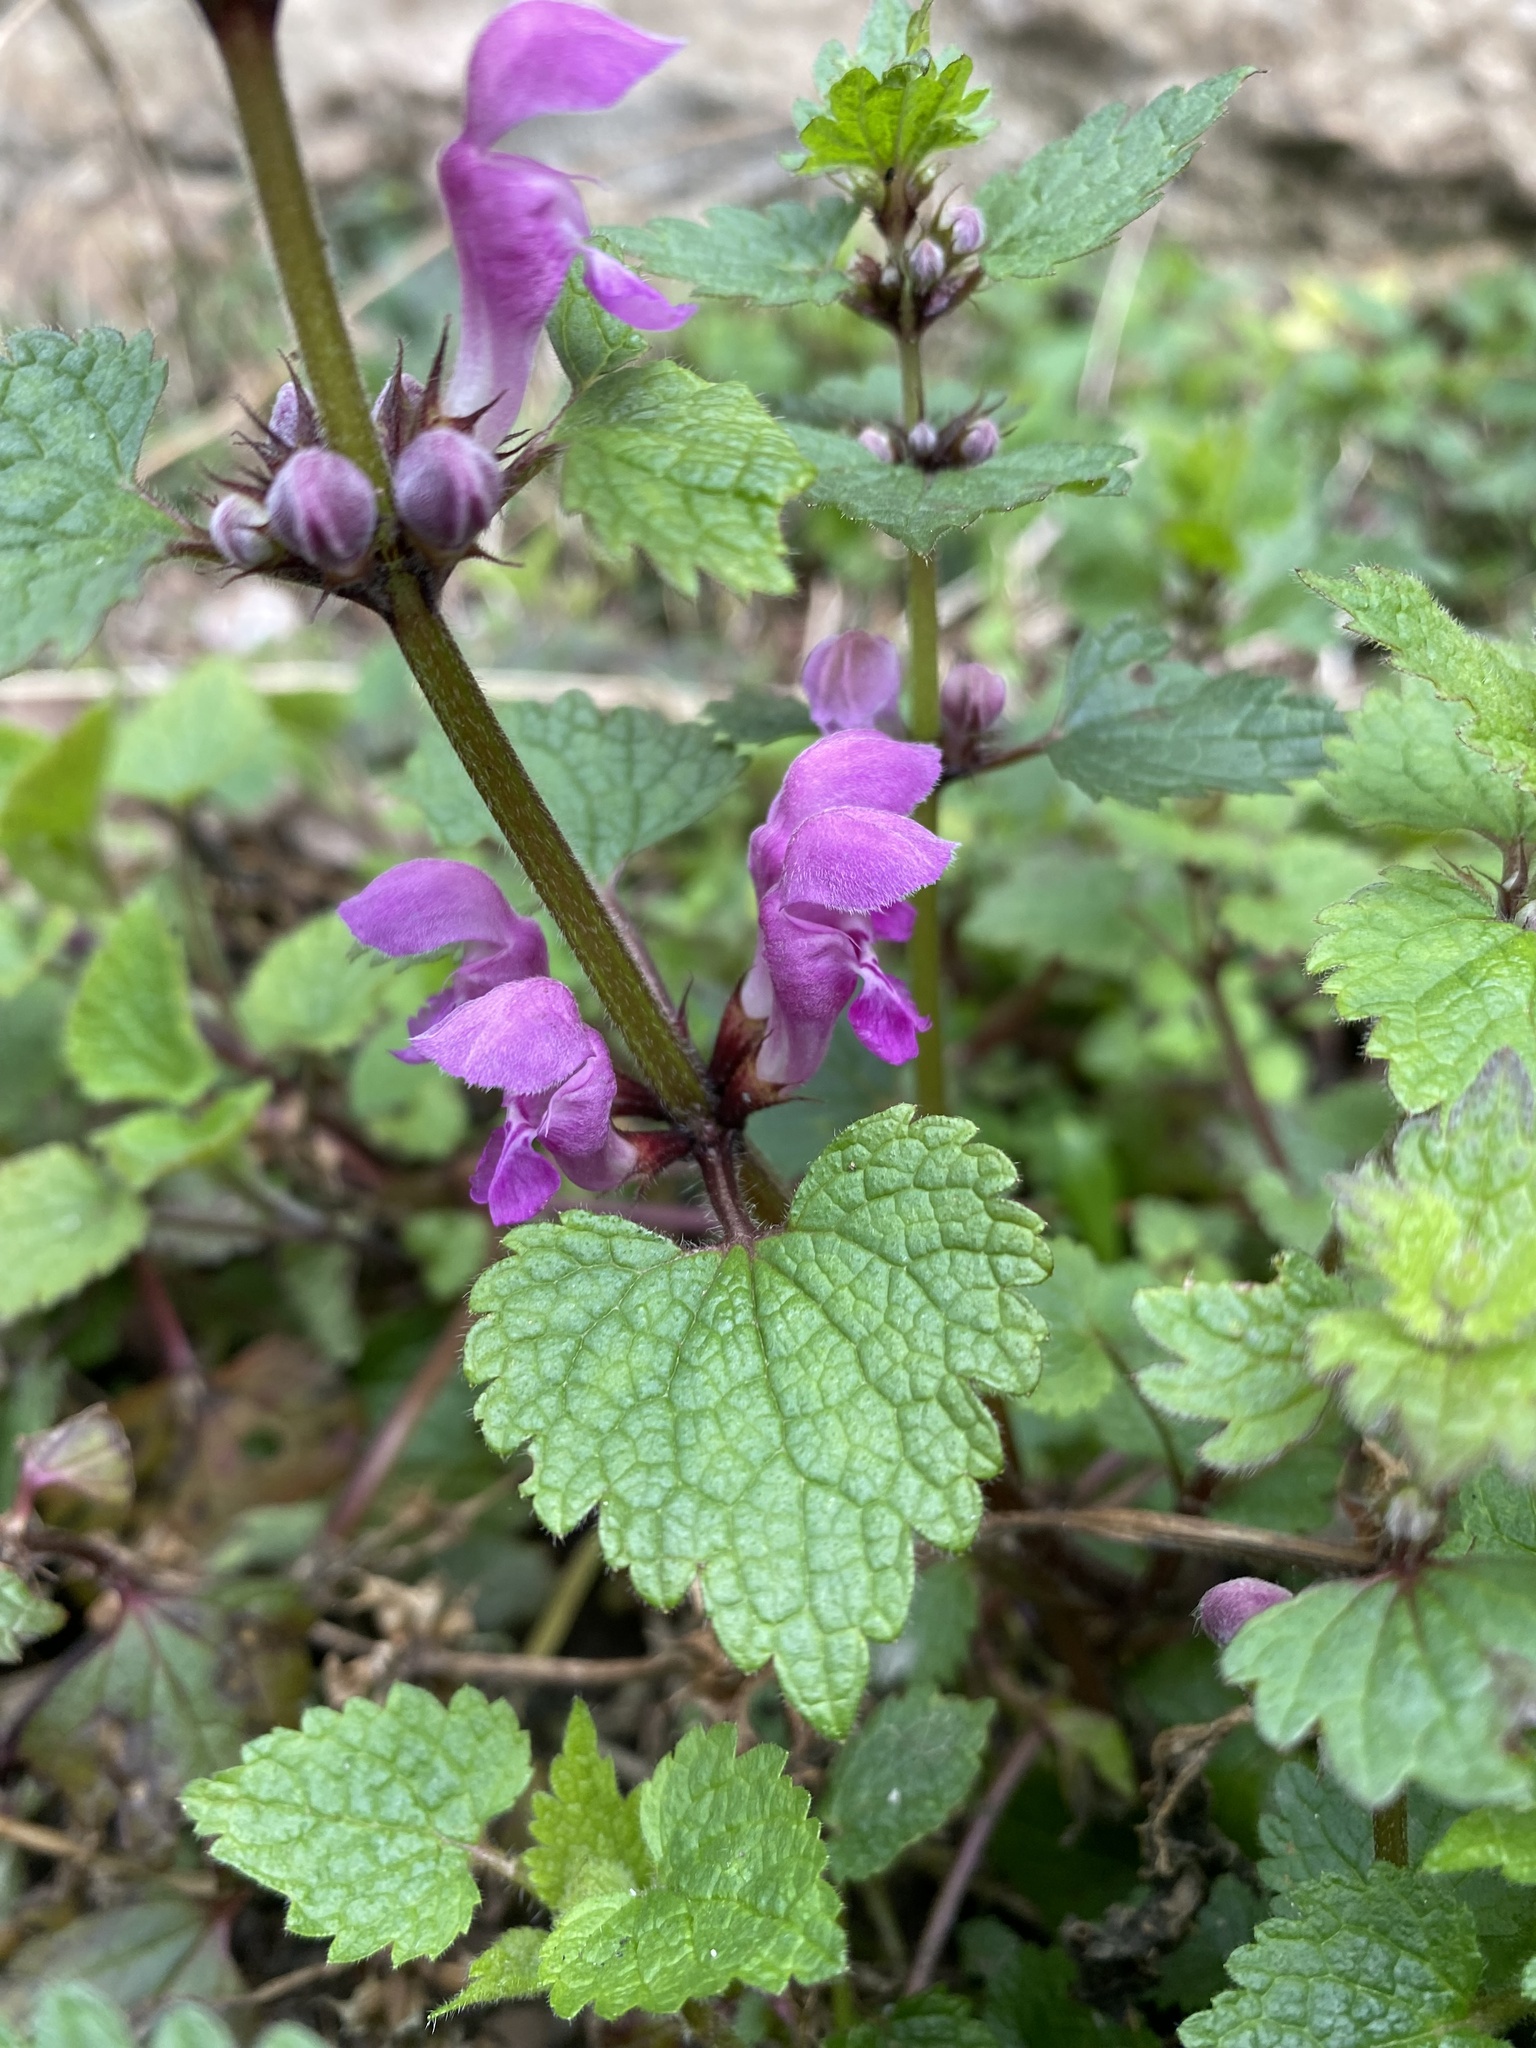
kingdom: Plantae
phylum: Tracheophyta
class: Magnoliopsida
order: Lamiales
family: Lamiaceae
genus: Lamium
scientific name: Lamium maculatum
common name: Spotted dead-nettle
